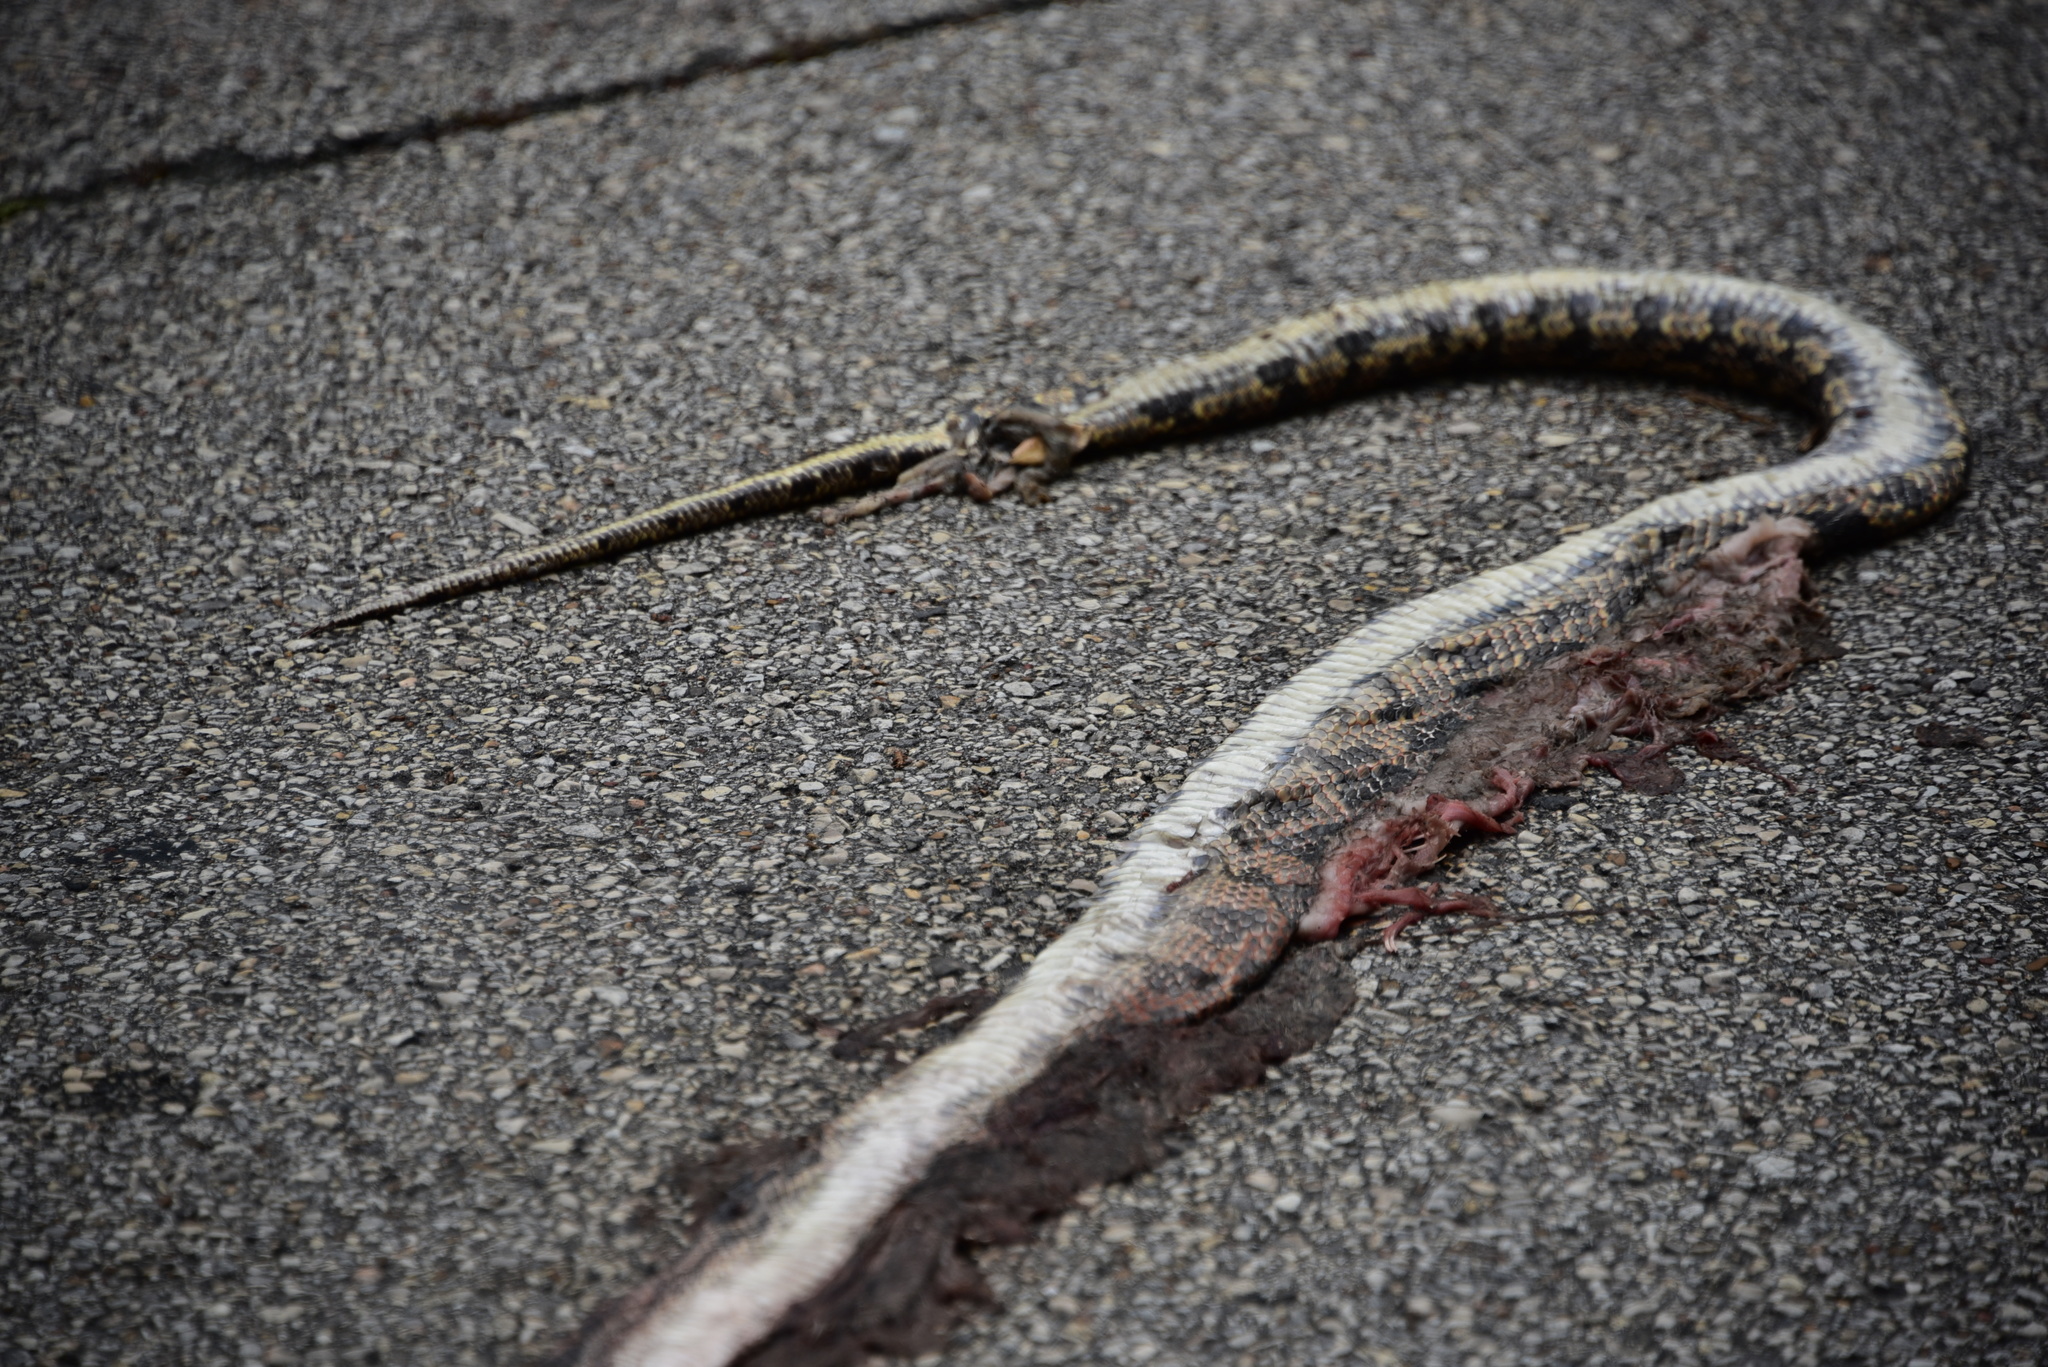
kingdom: Animalia
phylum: Chordata
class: Squamata
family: Colubridae
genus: Pantherophis
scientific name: Pantherophis obsoletus
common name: Black rat snake
